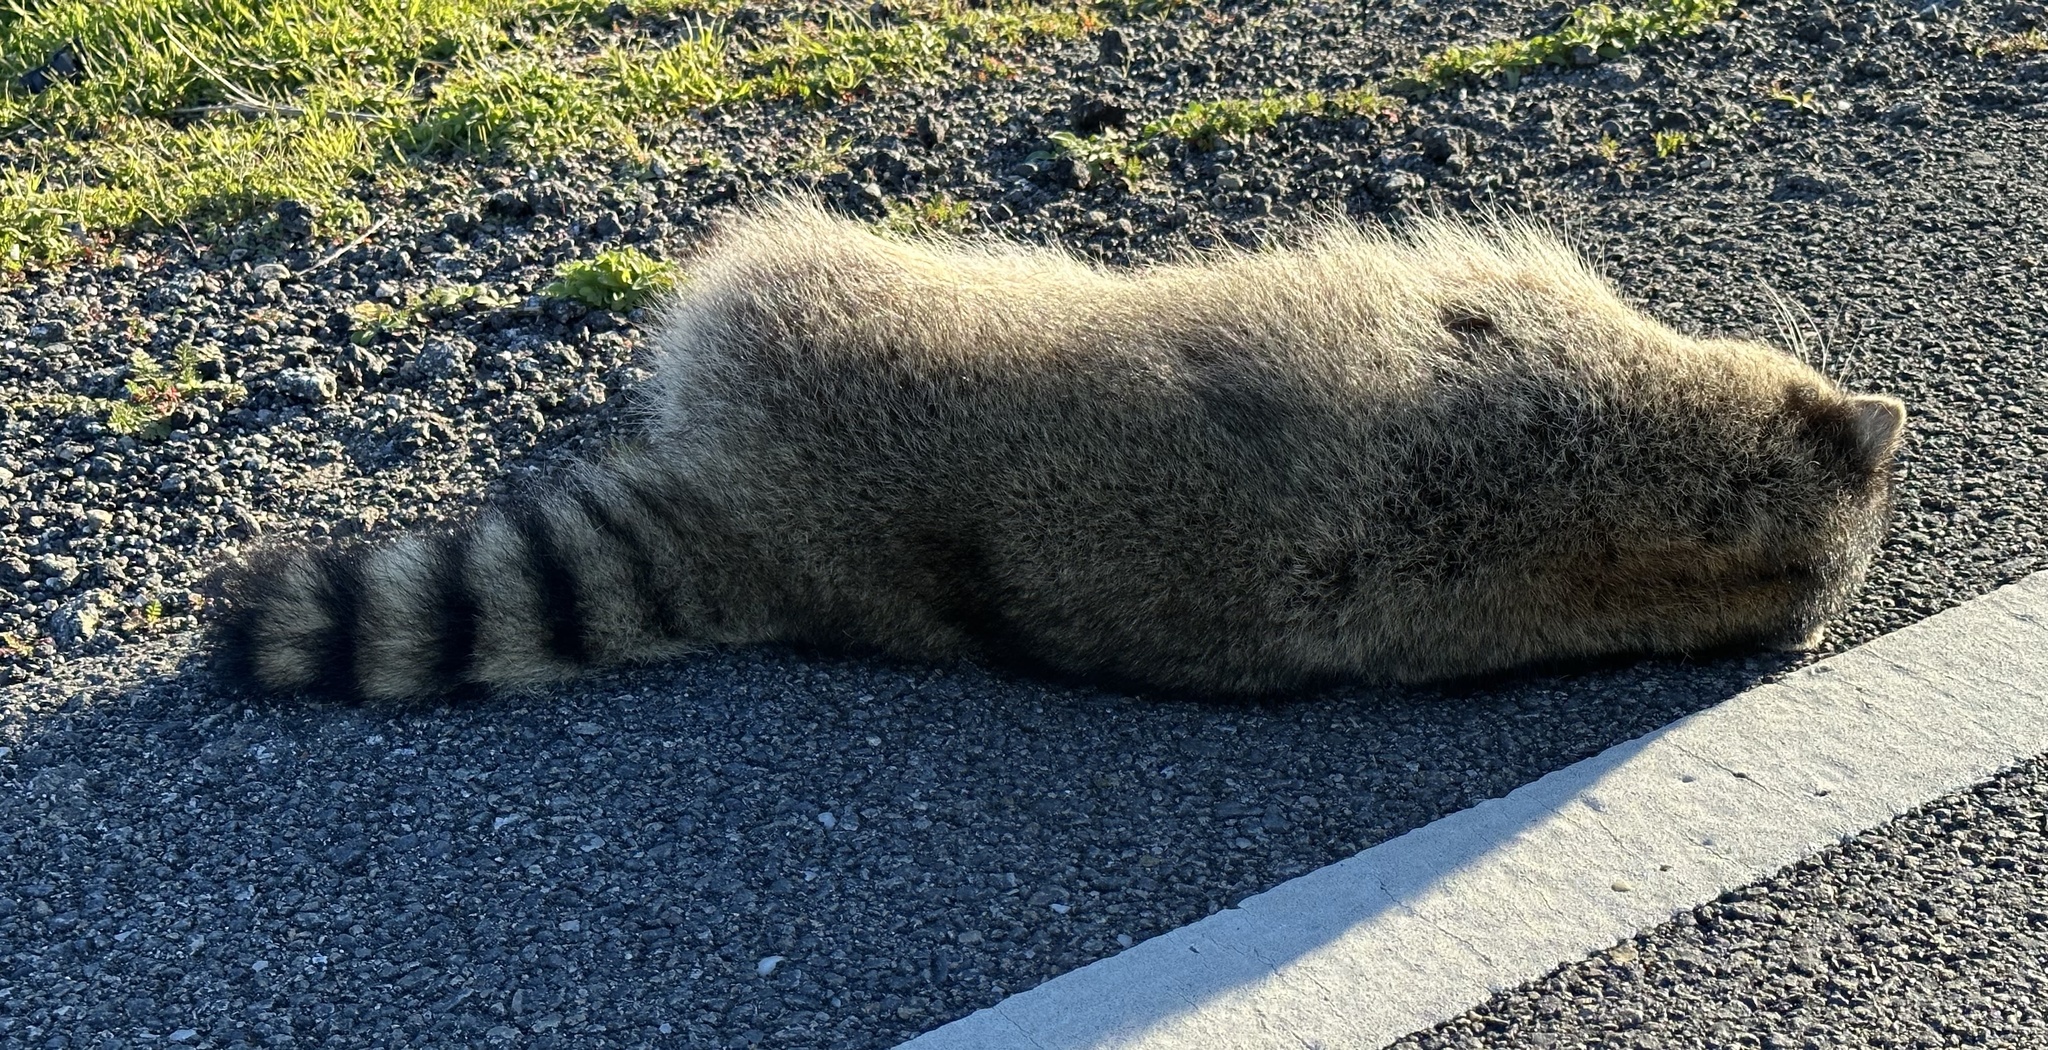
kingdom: Animalia
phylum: Chordata
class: Mammalia
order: Carnivora
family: Procyonidae
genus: Procyon
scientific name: Procyon lotor
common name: Raccoon
